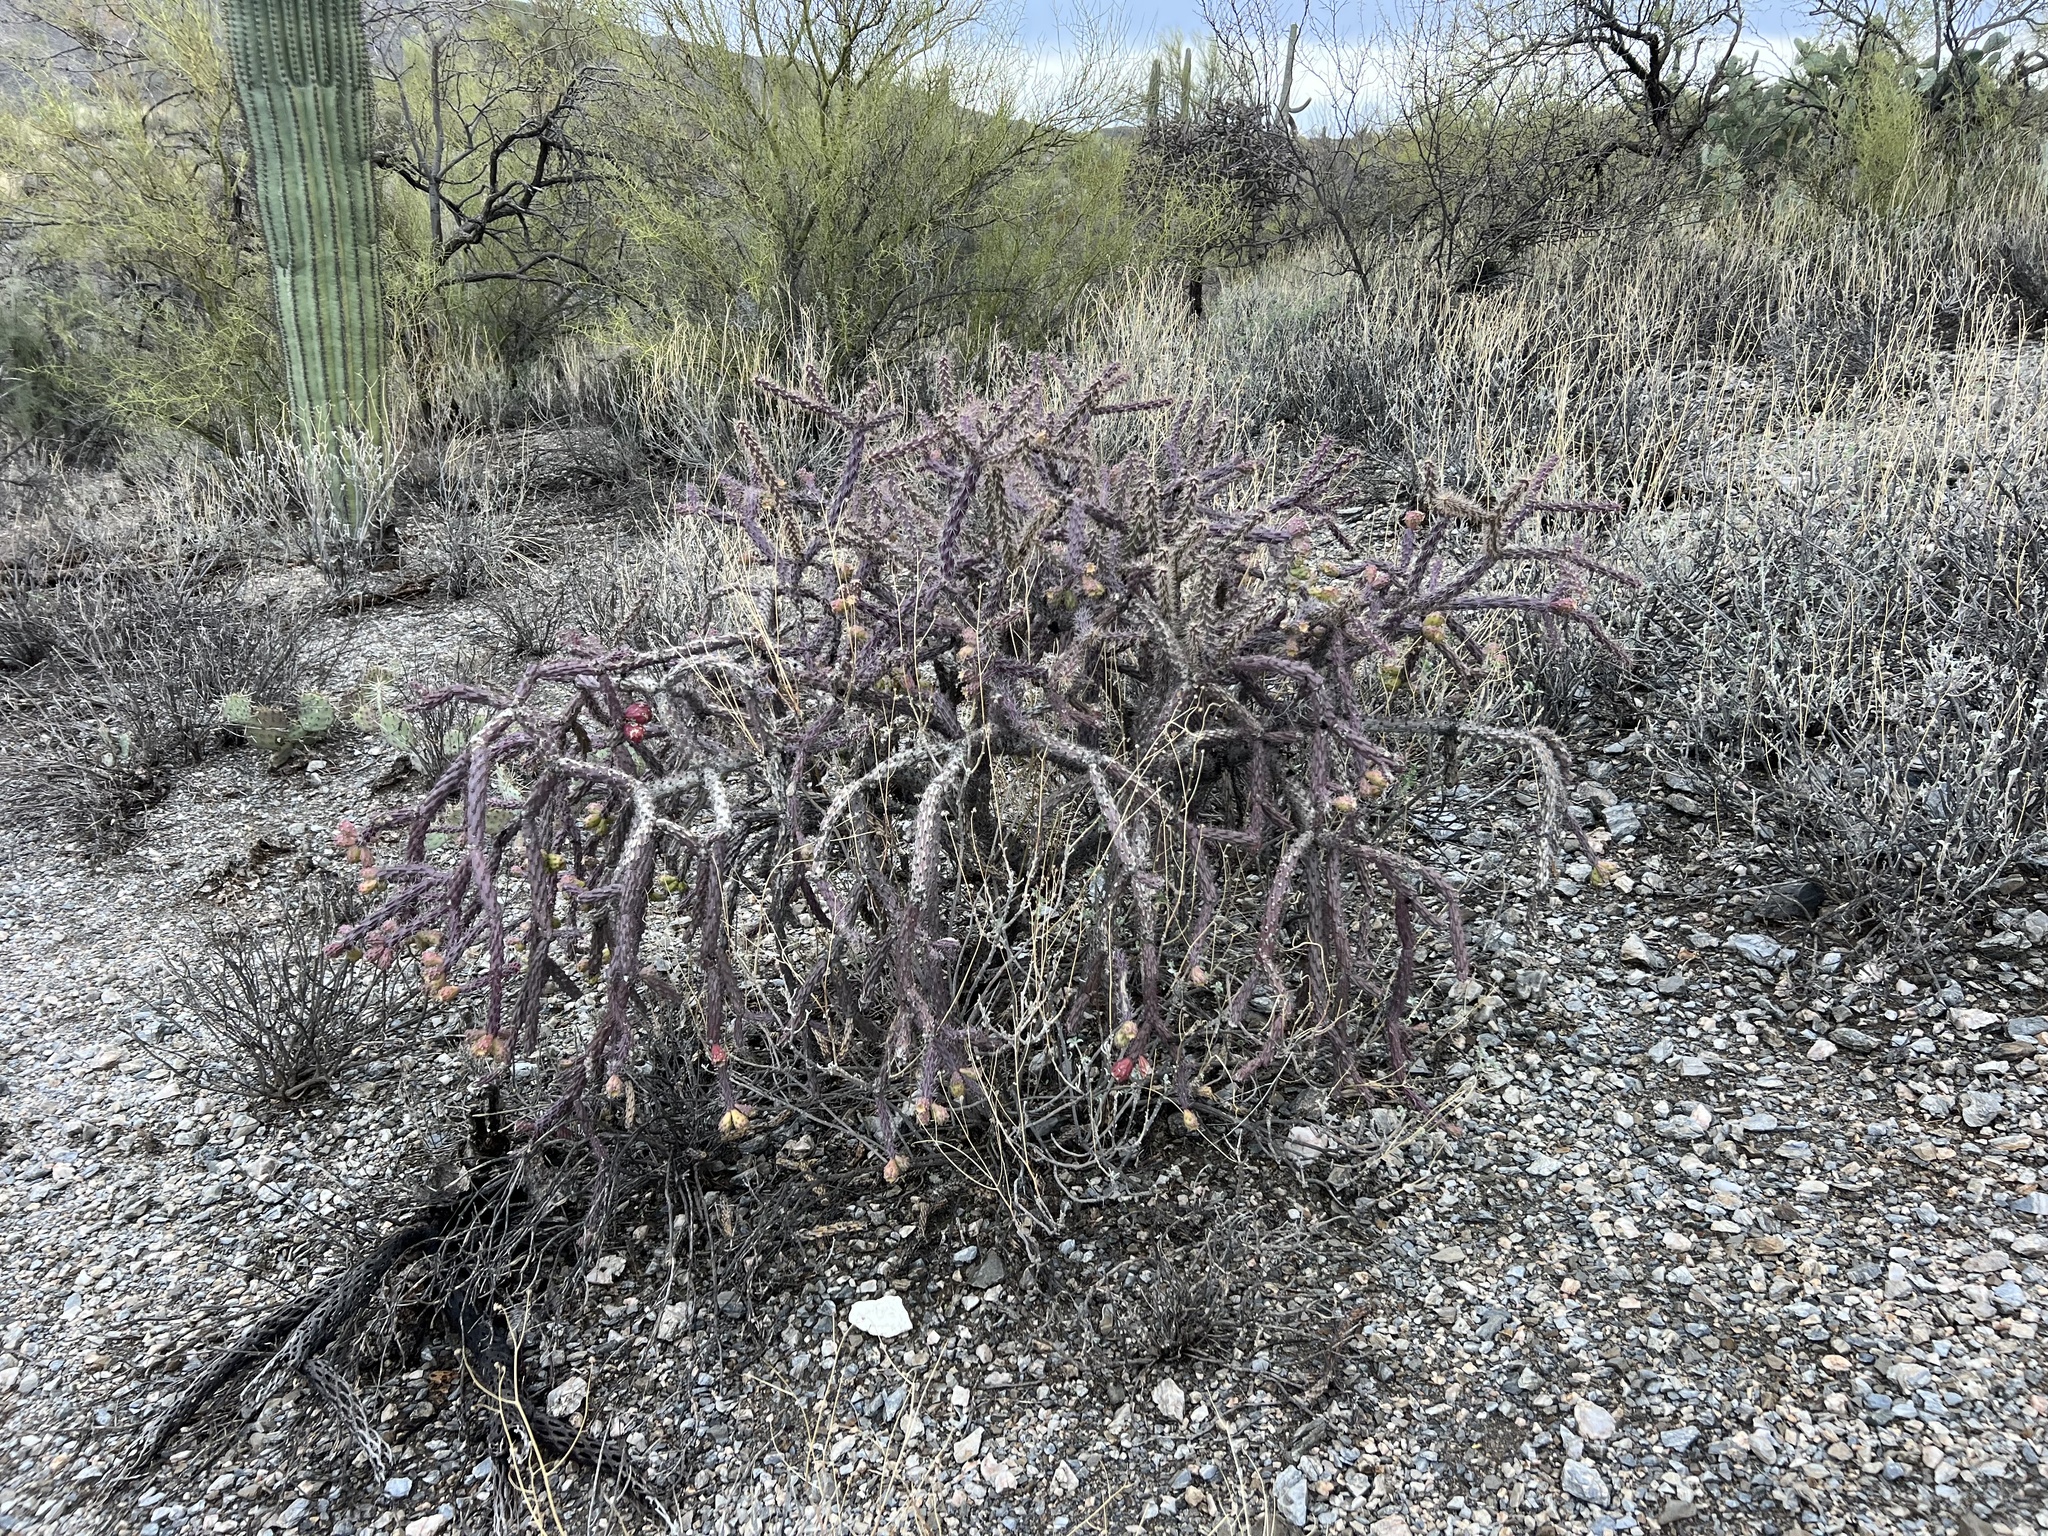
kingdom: Plantae
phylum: Tracheophyta
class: Magnoliopsida
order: Caryophyllales
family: Cactaceae
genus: Cylindropuntia
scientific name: Cylindropuntia thurberi
